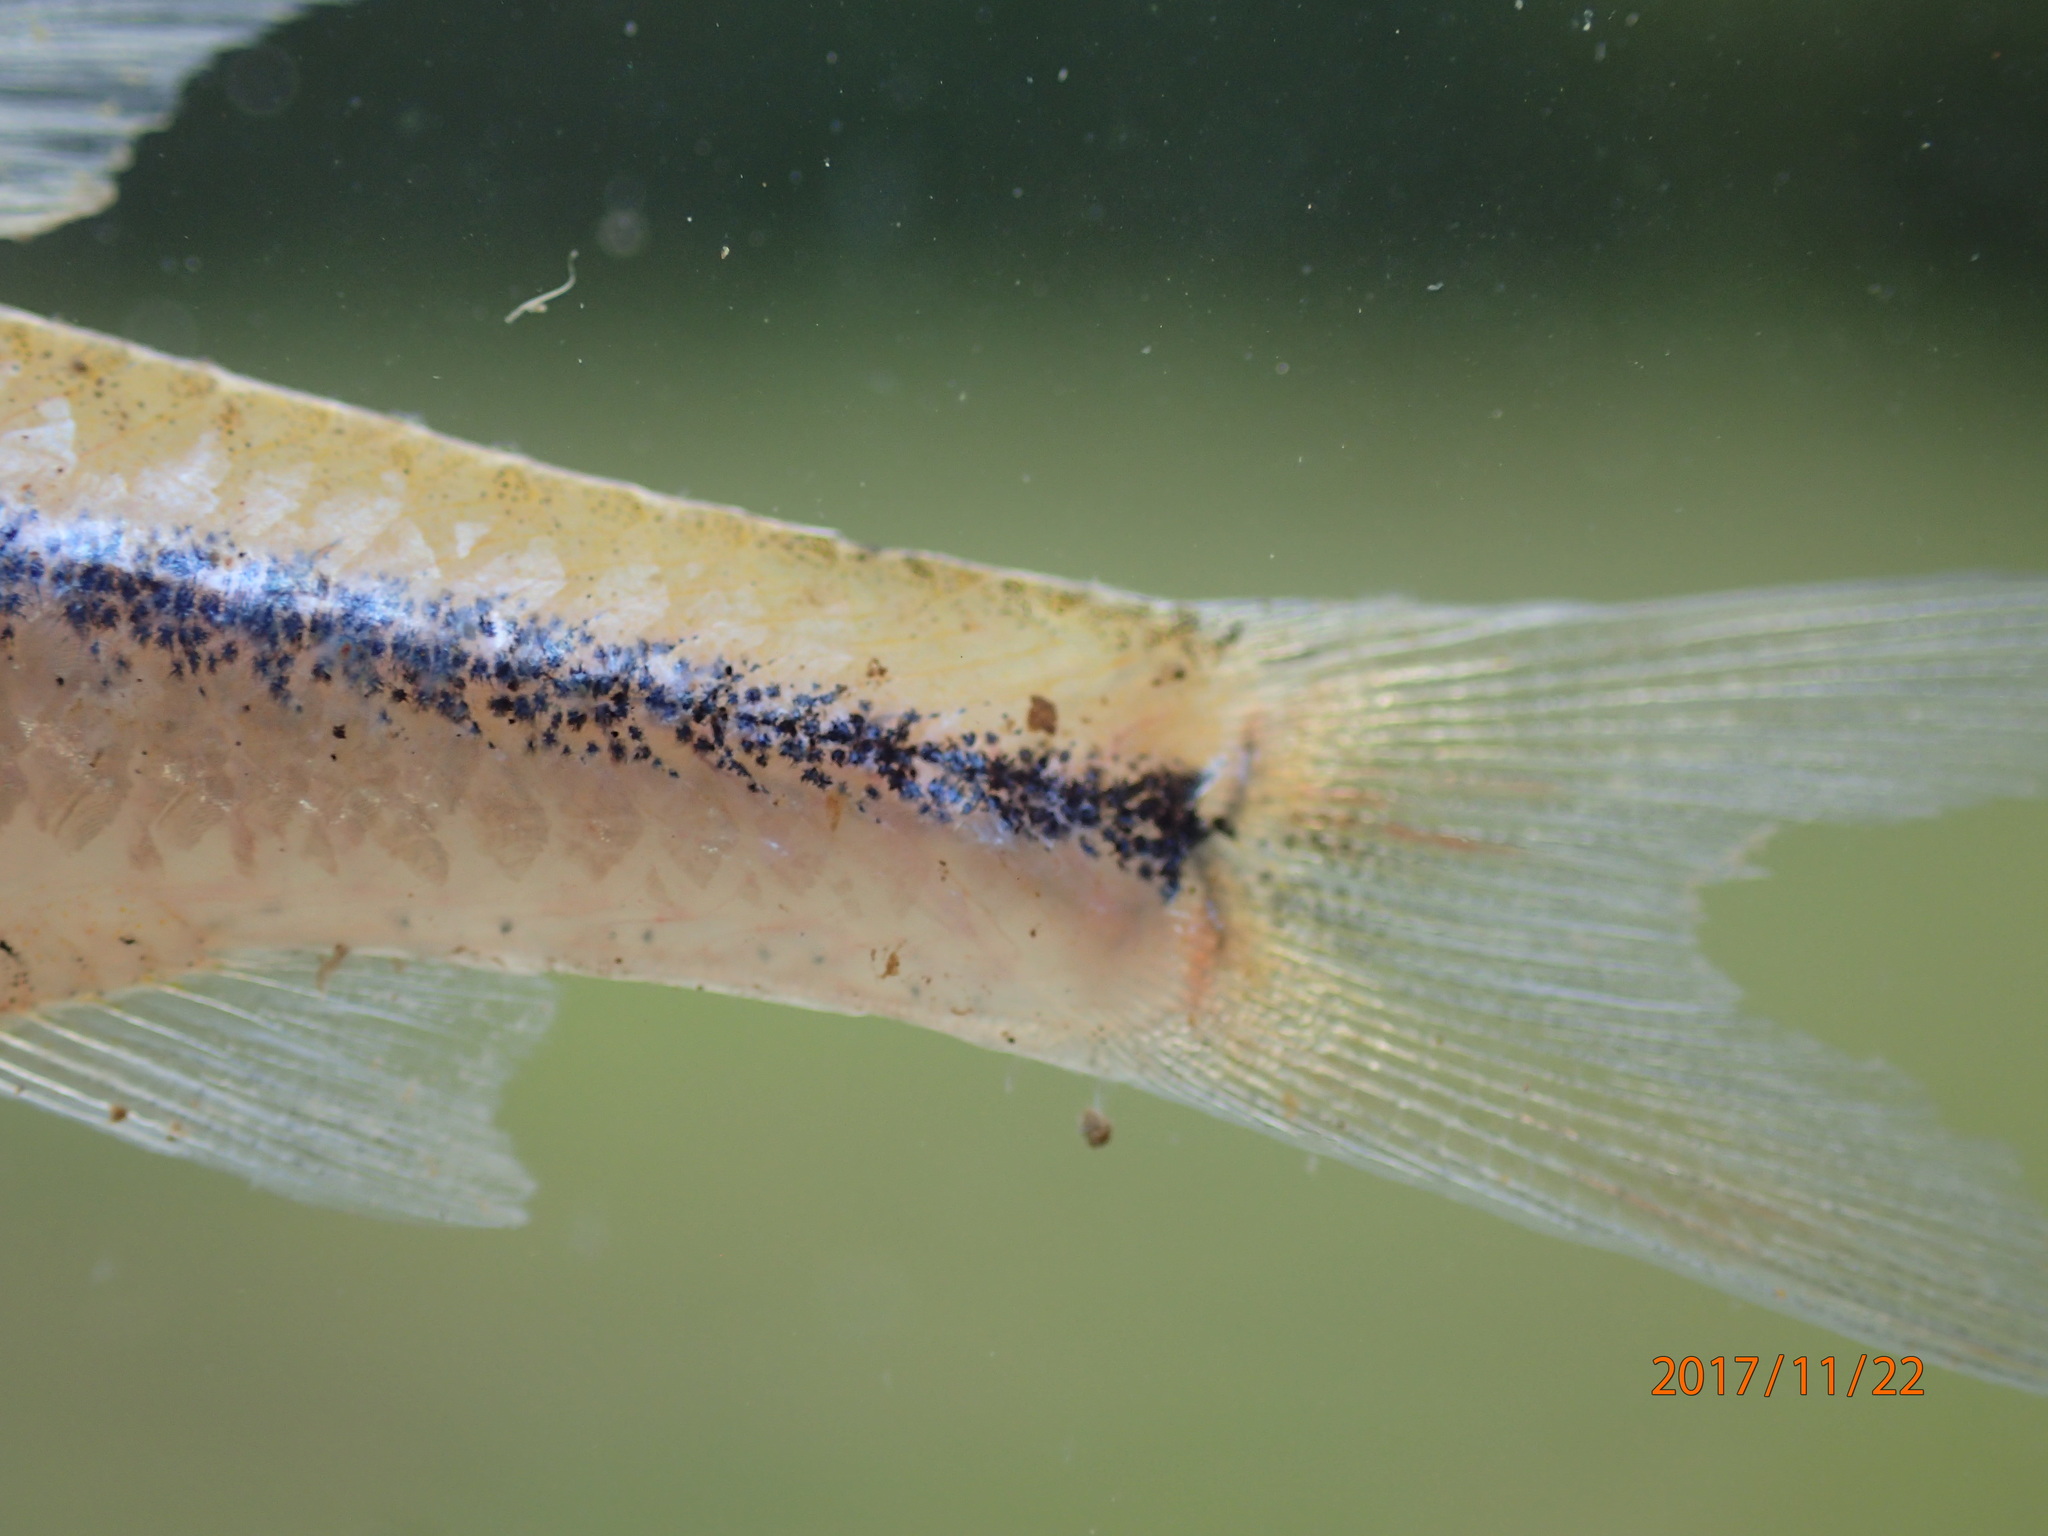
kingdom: Animalia
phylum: Chordata
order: Cypriniformes
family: Cyprinidae
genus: Enteromius
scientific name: Enteromius toppini
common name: East coast barb
